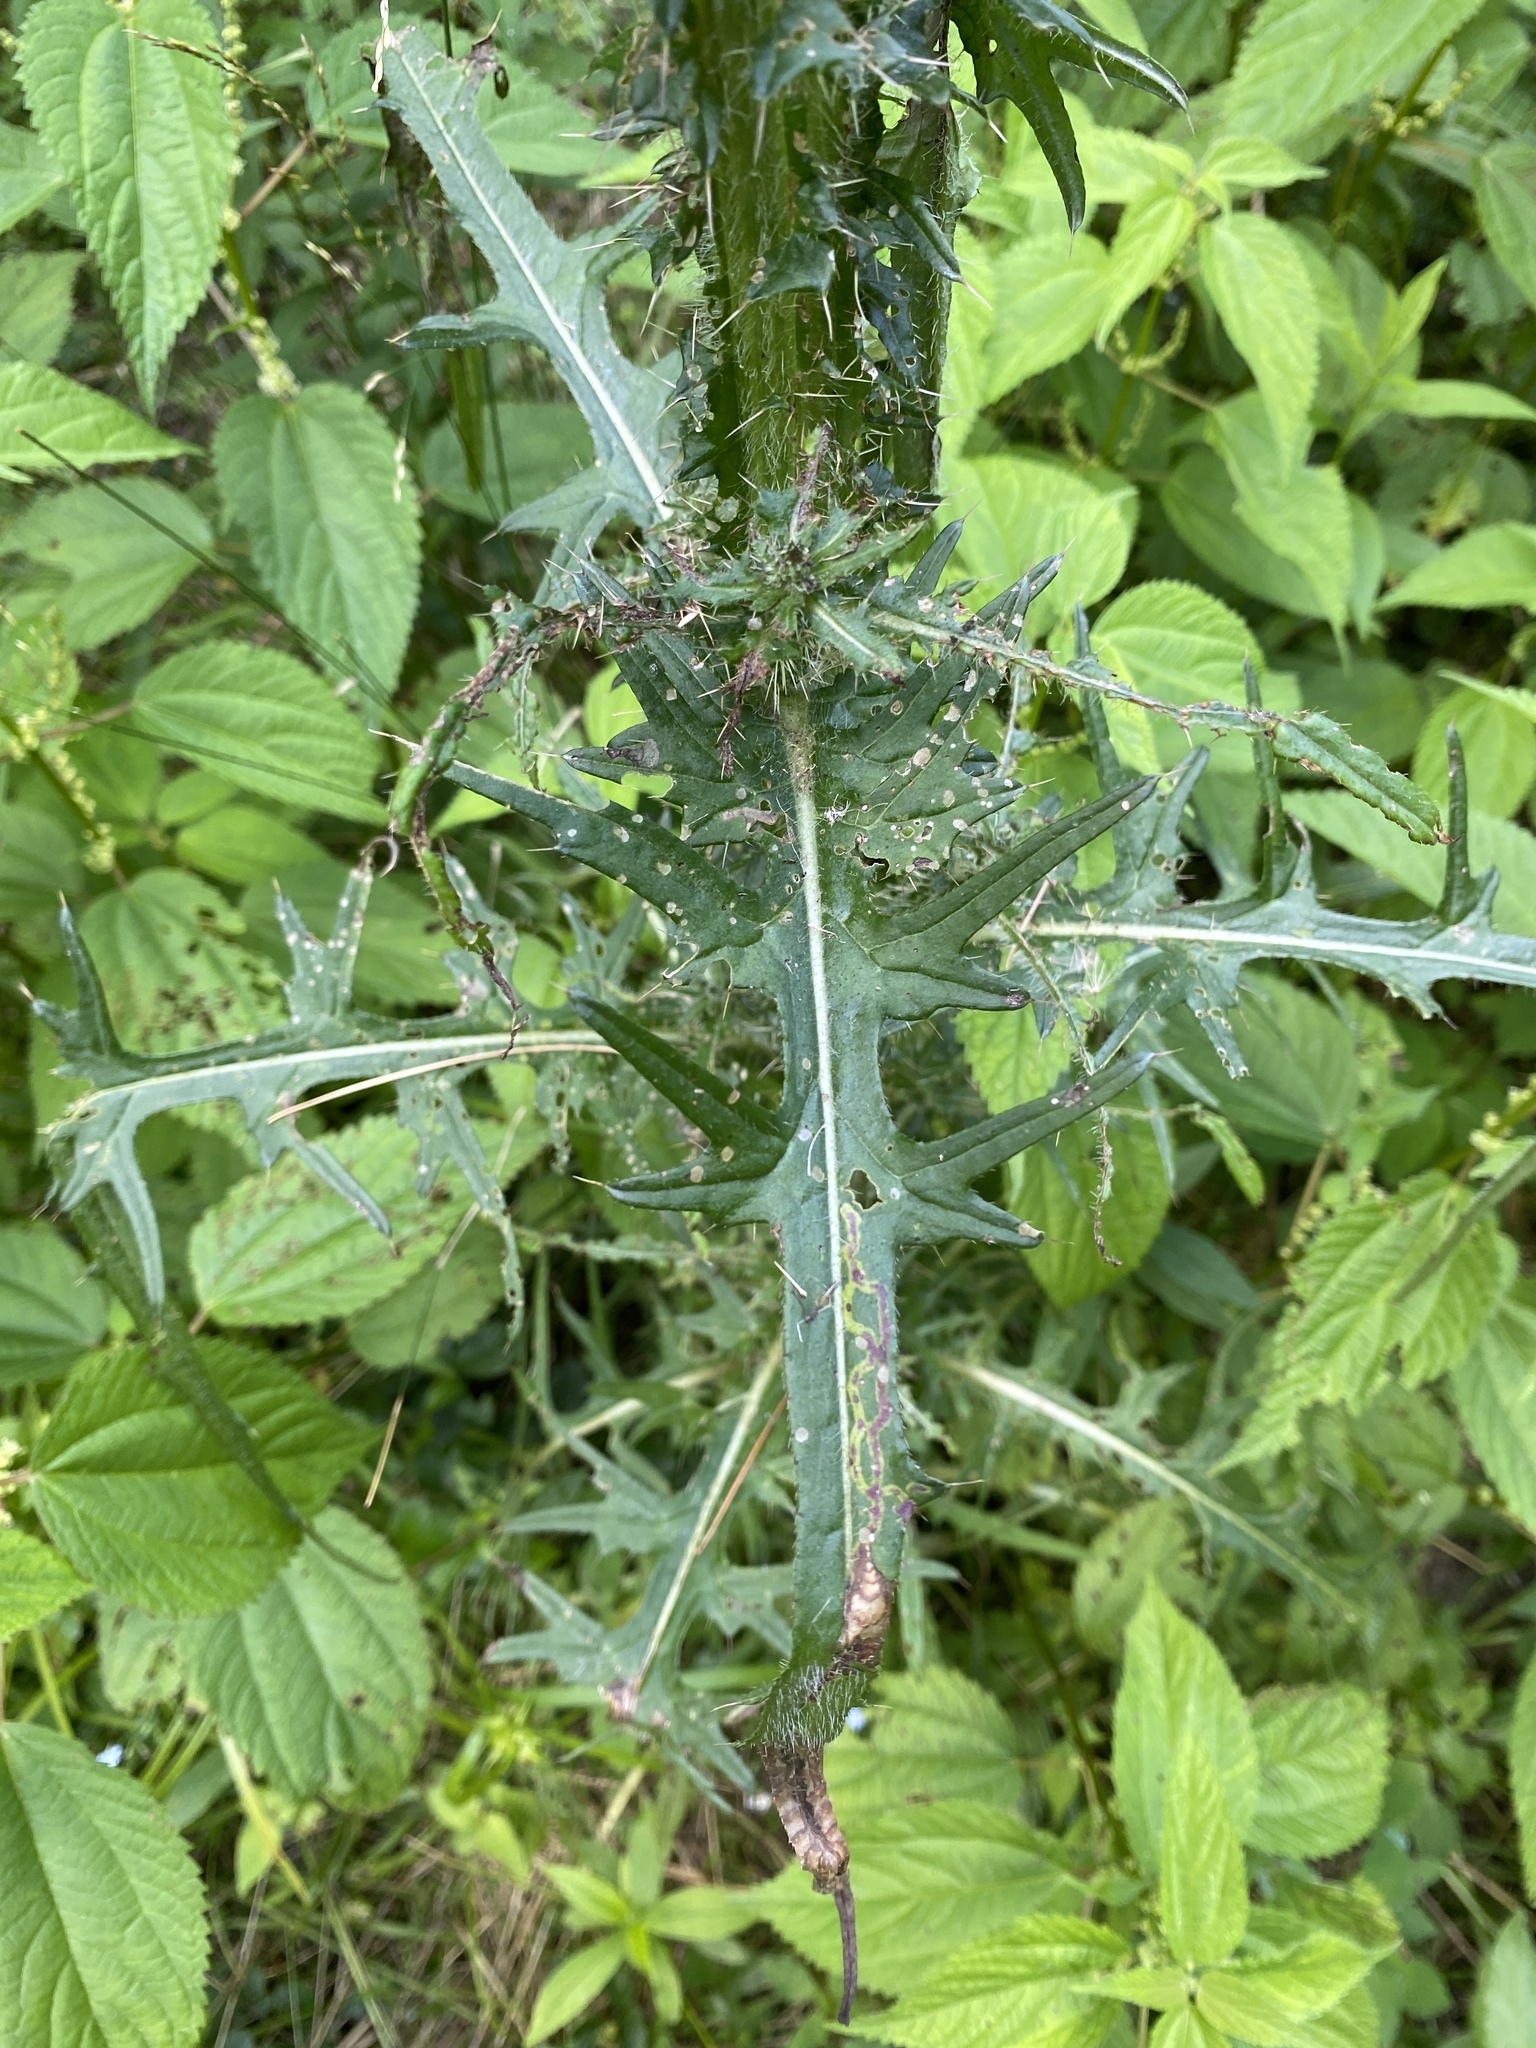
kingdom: Plantae
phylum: Tracheophyta
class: Magnoliopsida
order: Asterales
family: Asteraceae
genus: Cirsium
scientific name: Cirsium palustre
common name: Marsh thistle
